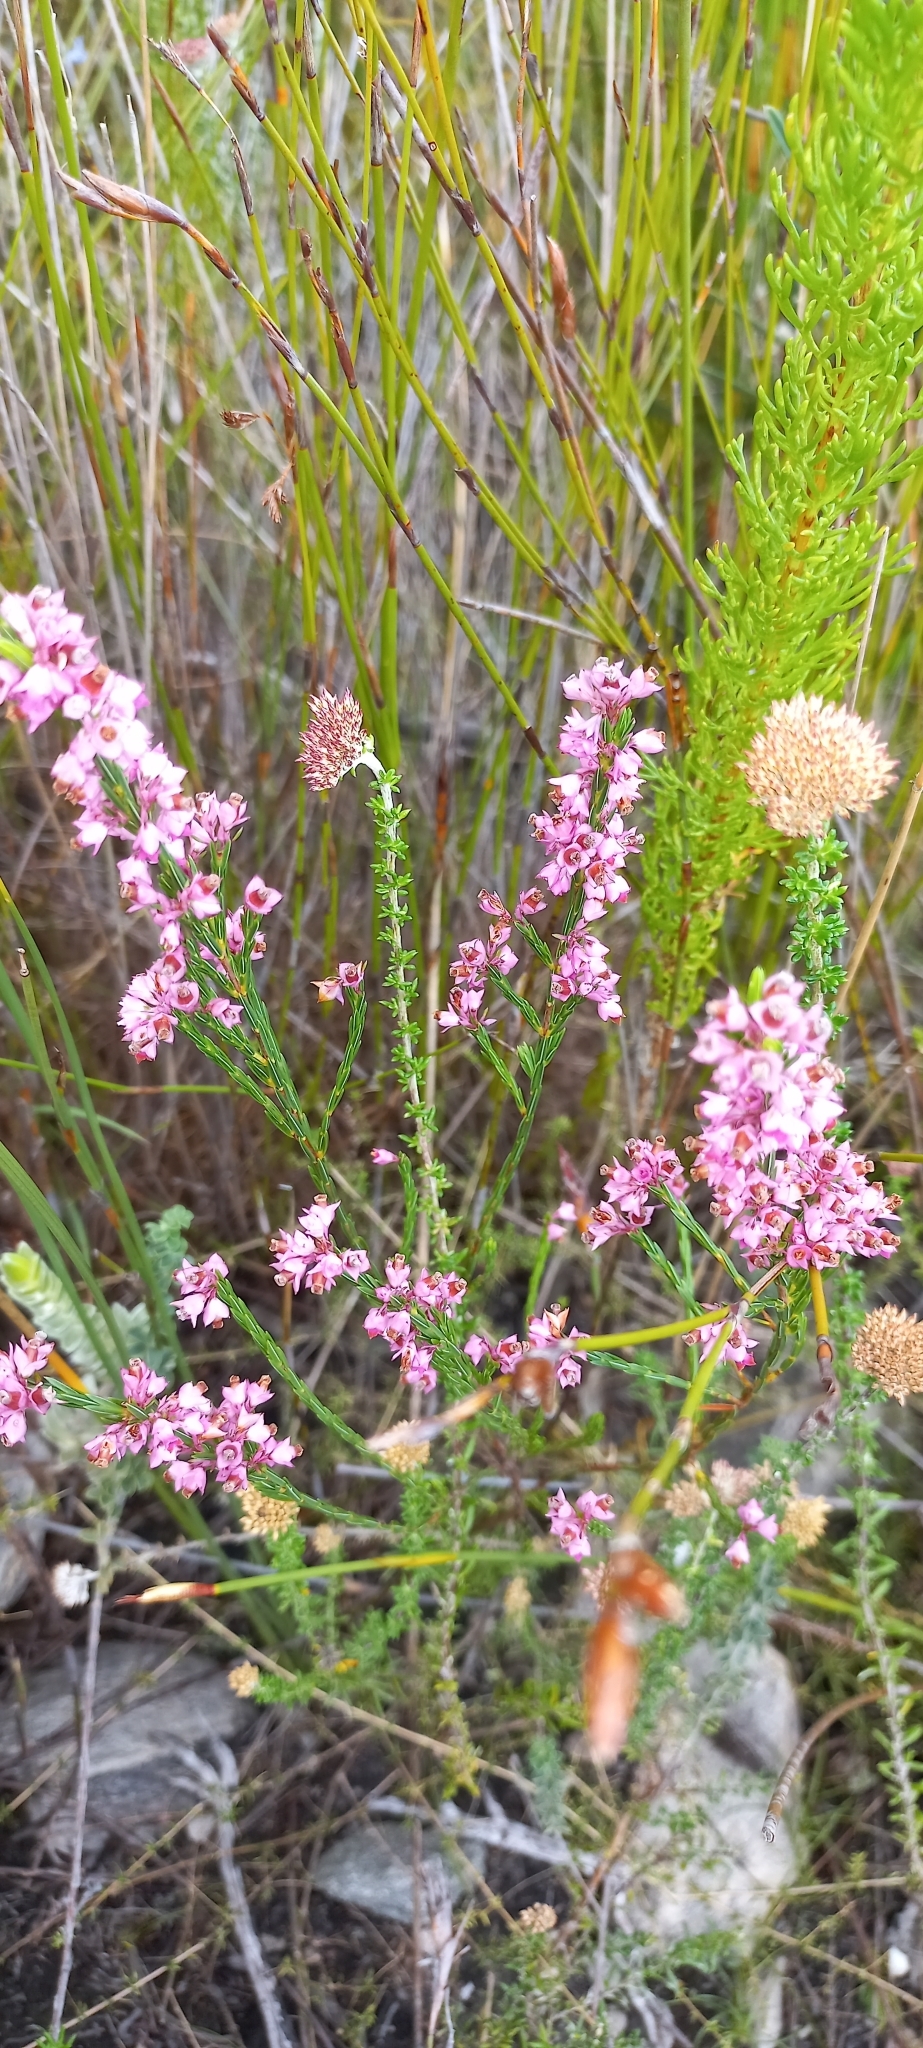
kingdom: Plantae
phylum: Tracheophyta
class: Magnoliopsida
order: Ericales
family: Ericaceae
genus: Erica
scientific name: Erica corifolia
